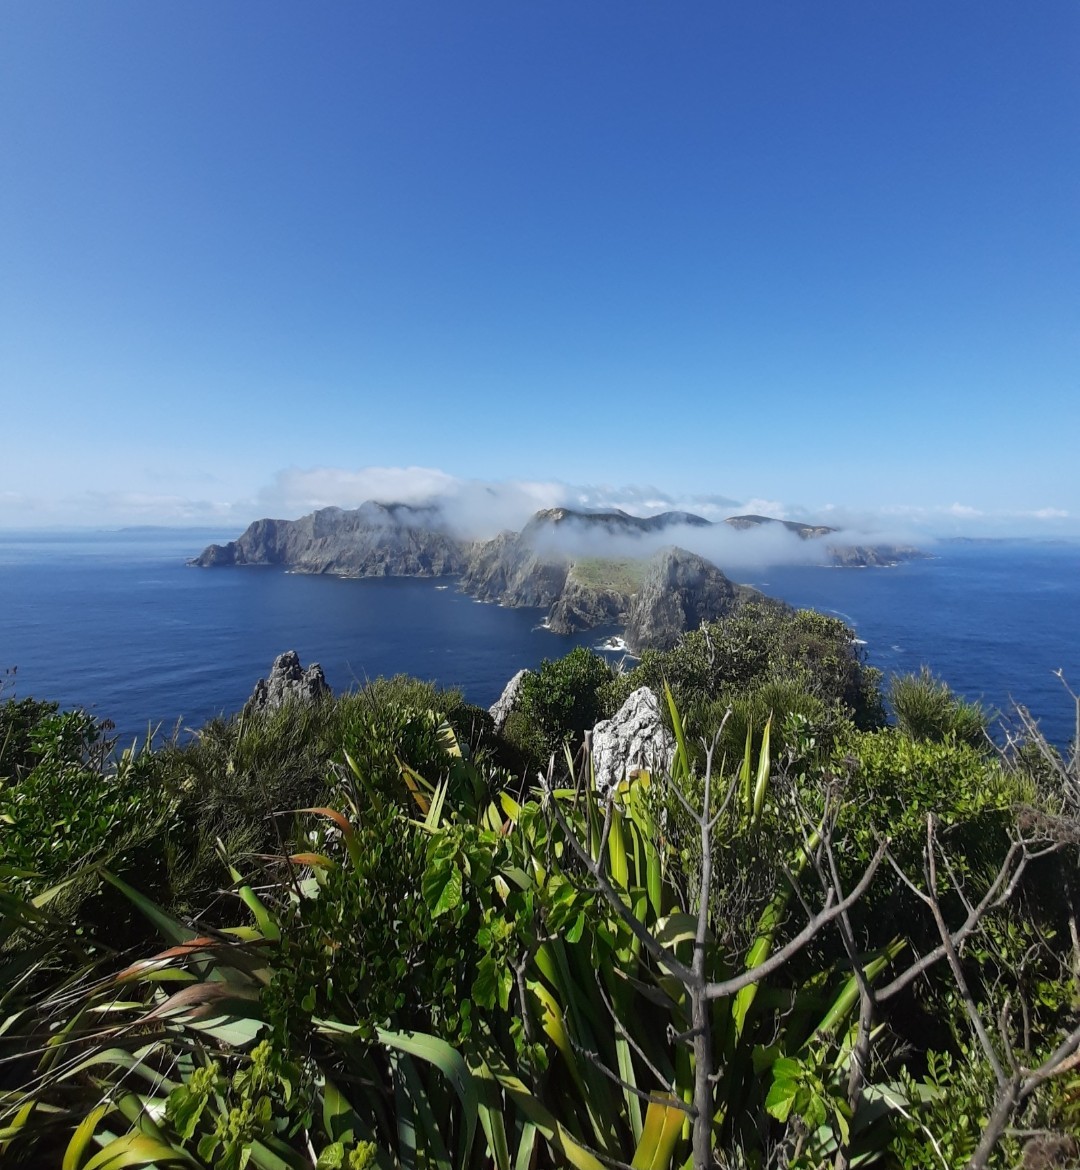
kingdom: Plantae
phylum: Tracheophyta
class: Liliopsida
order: Asparagales
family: Asphodelaceae
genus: Phormium
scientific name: Phormium tenax
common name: New zealand flax
